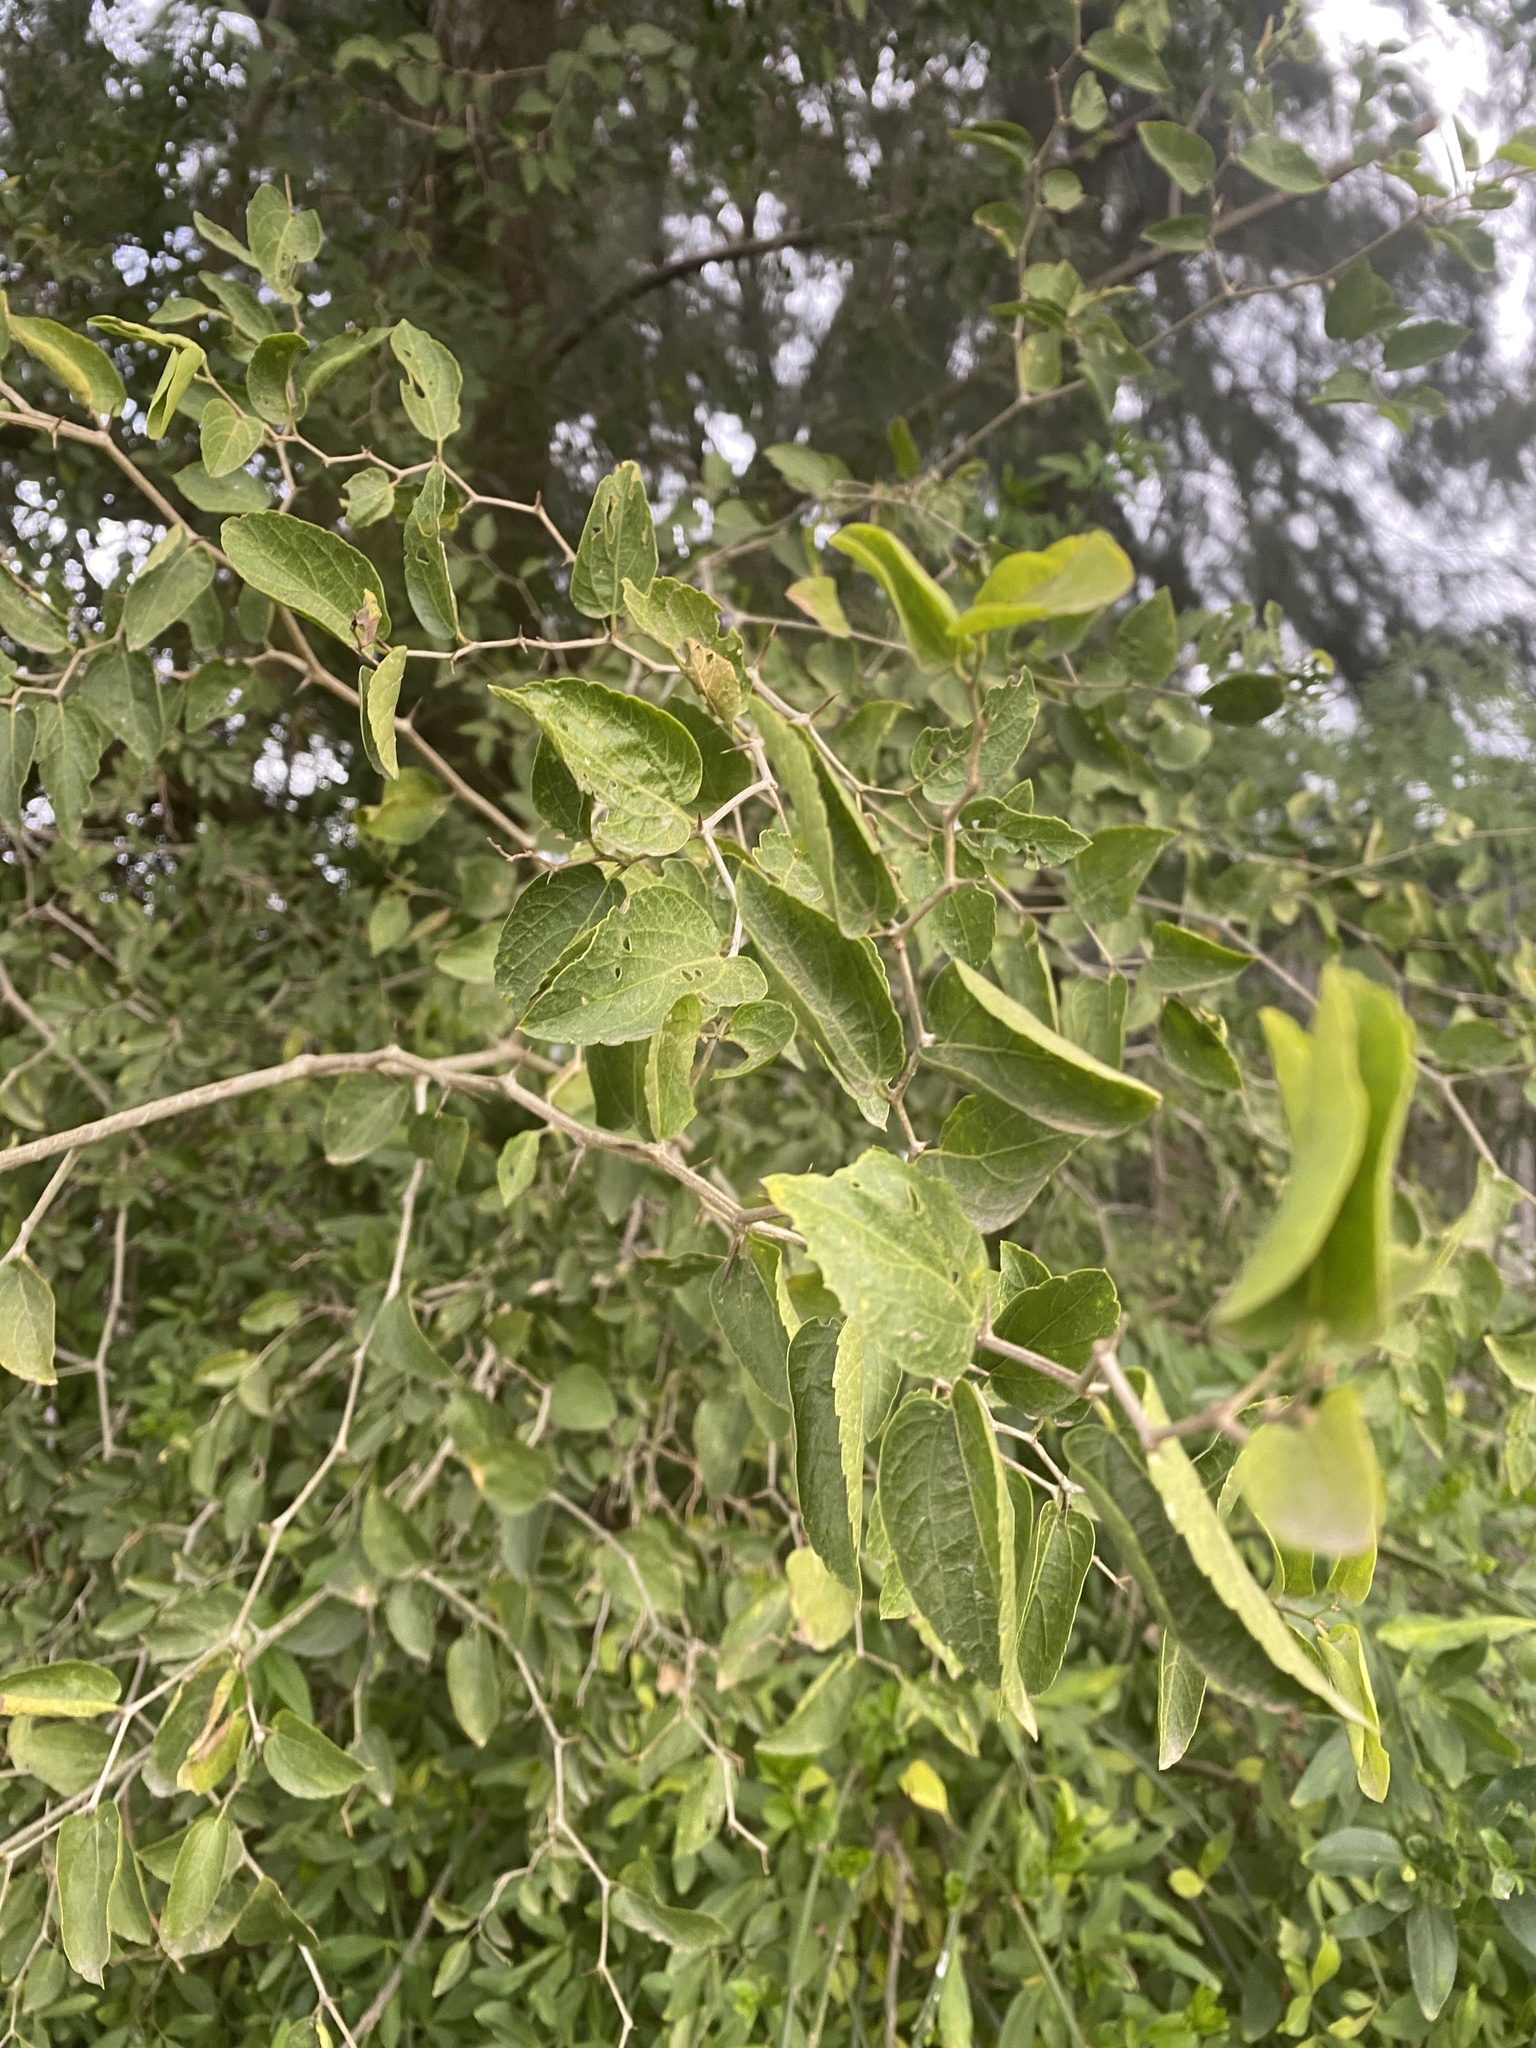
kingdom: Plantae
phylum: Tracheophyta
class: Magnoliopsida
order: Rosales
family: Cannabaceae
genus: Celtis
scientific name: Celtis tala
